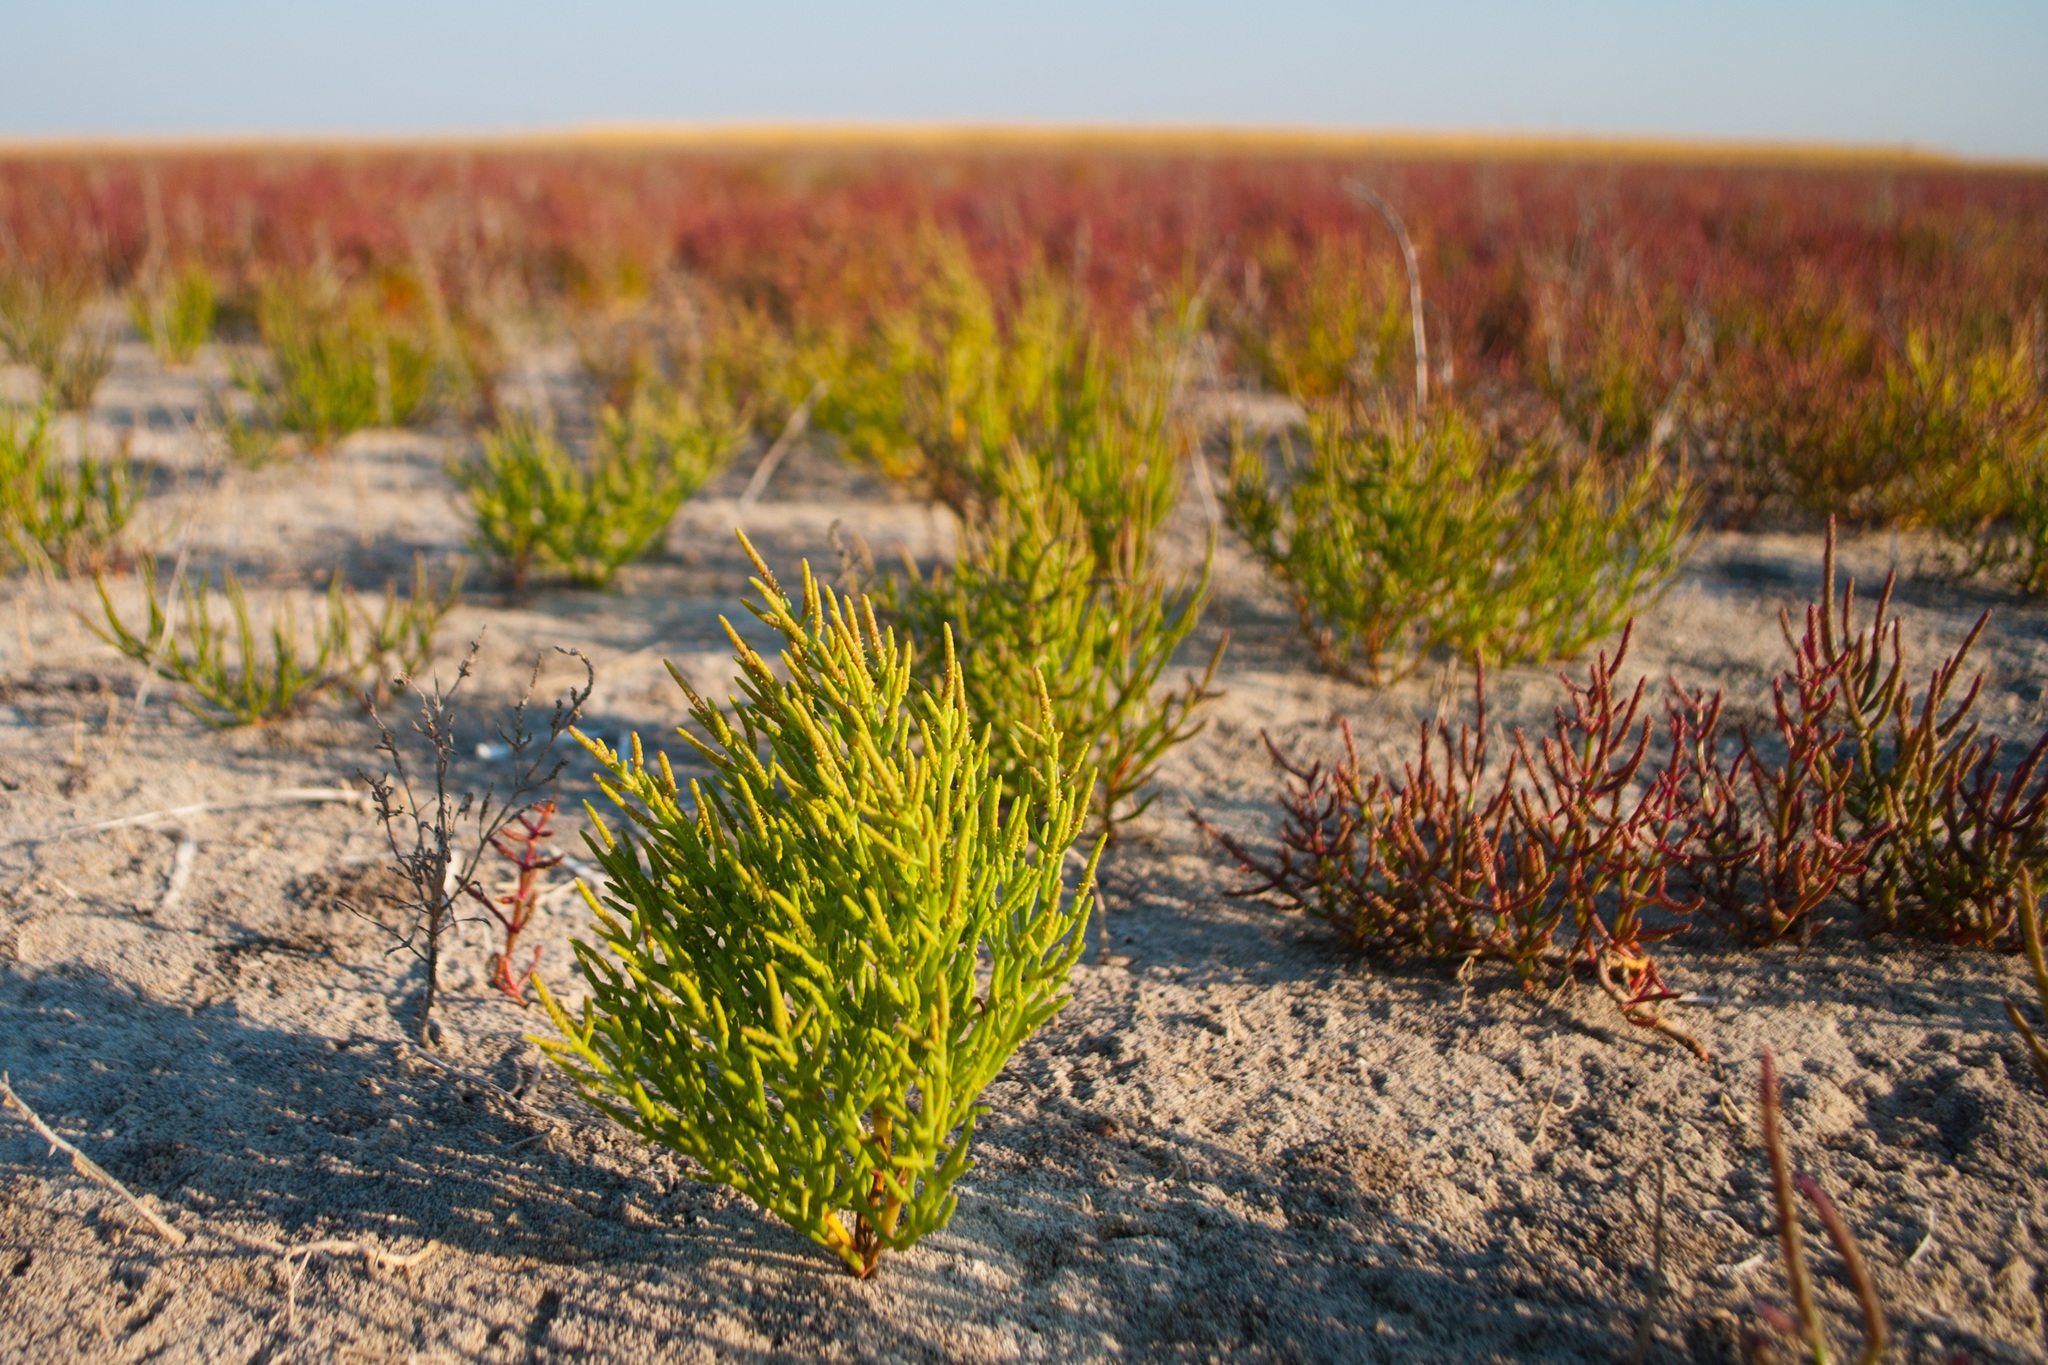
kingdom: Plantae
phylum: Tracheophyta
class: Magnoliopsida
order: Caryophyllales
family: Amaranthaceae
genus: Salicornia
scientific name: Salicornia perennans
